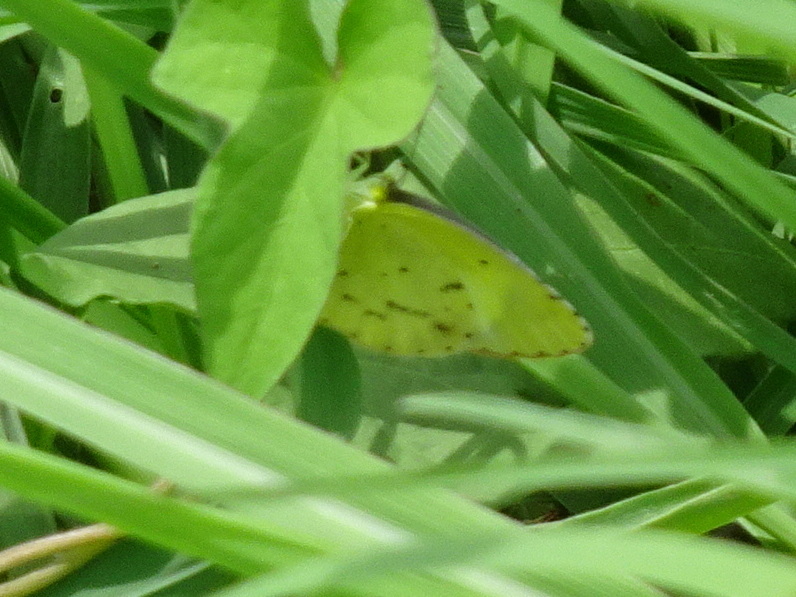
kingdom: Animalia
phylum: Arthropoda
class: Insecta
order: Lepidoptera
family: Pieridae
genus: Pyrisitia
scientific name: Pyrisitia lisa
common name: Little yellow
